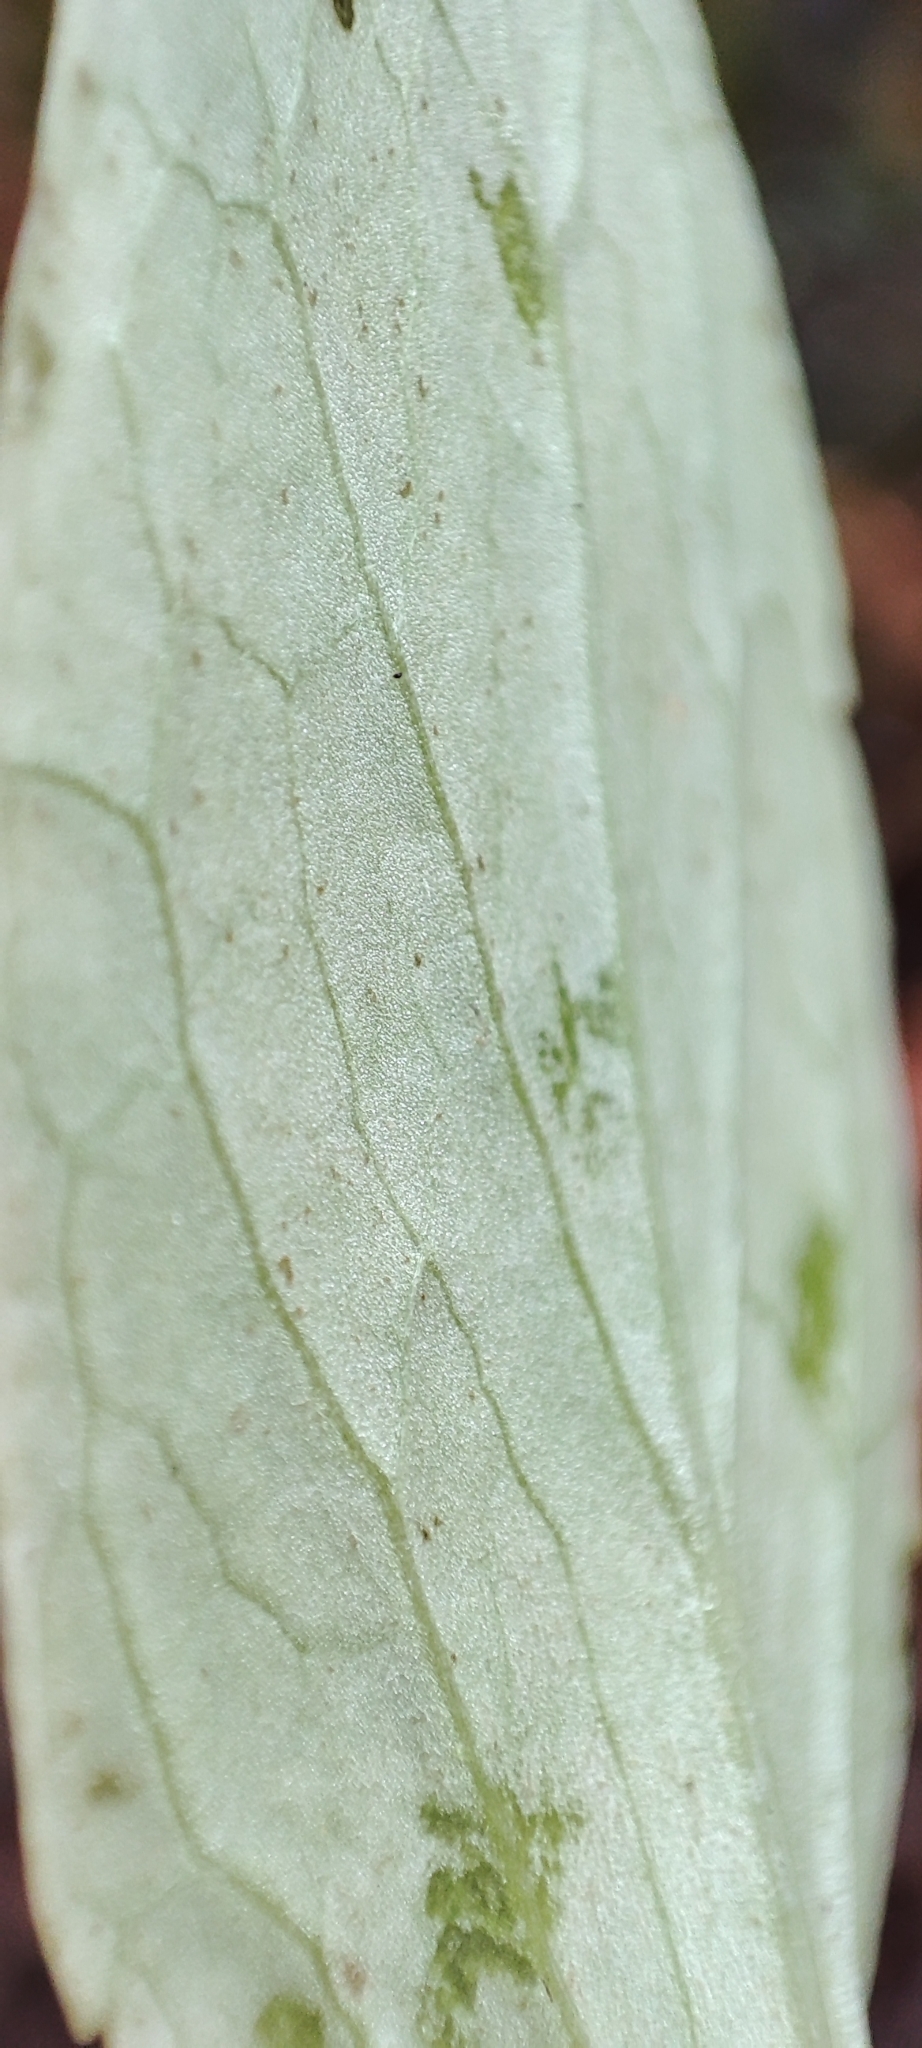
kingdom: Plantae
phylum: Tracheophyta
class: Magnoliopsida
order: Dipsacales
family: Caprifoliaceae
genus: Valeriana
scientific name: Valeriana capitata
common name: Capitate valerian
